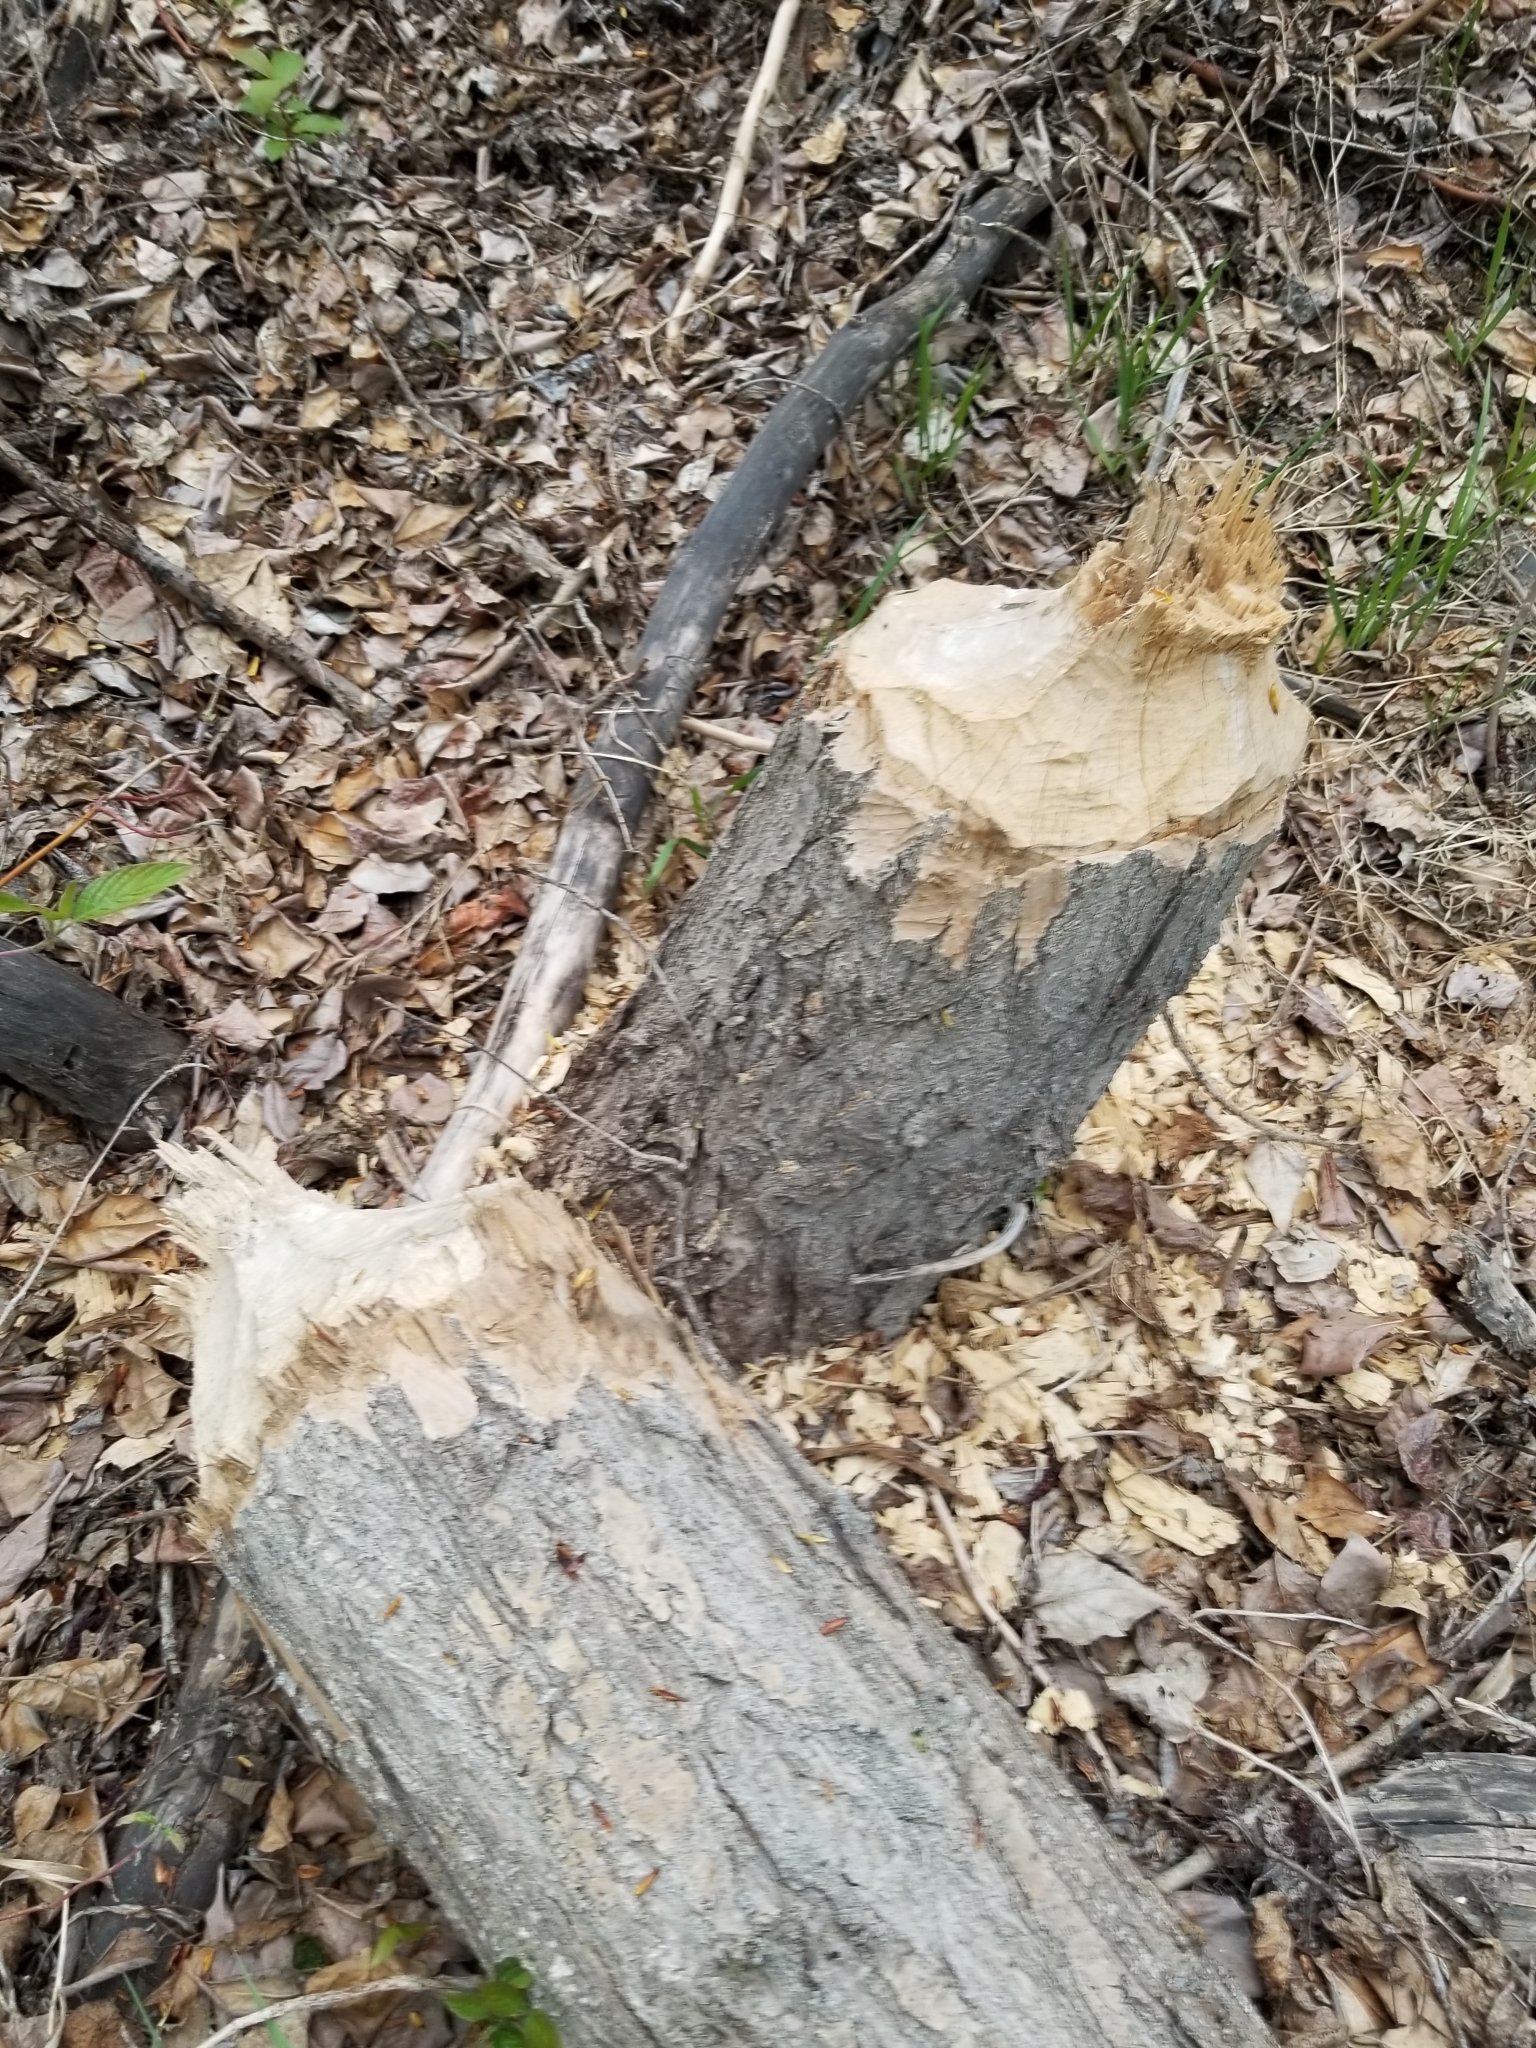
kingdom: Animalia
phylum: Chordata
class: Mammalia
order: Rodentia
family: Castoridae
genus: Castor
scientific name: Castor canadensis
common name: American beaver
